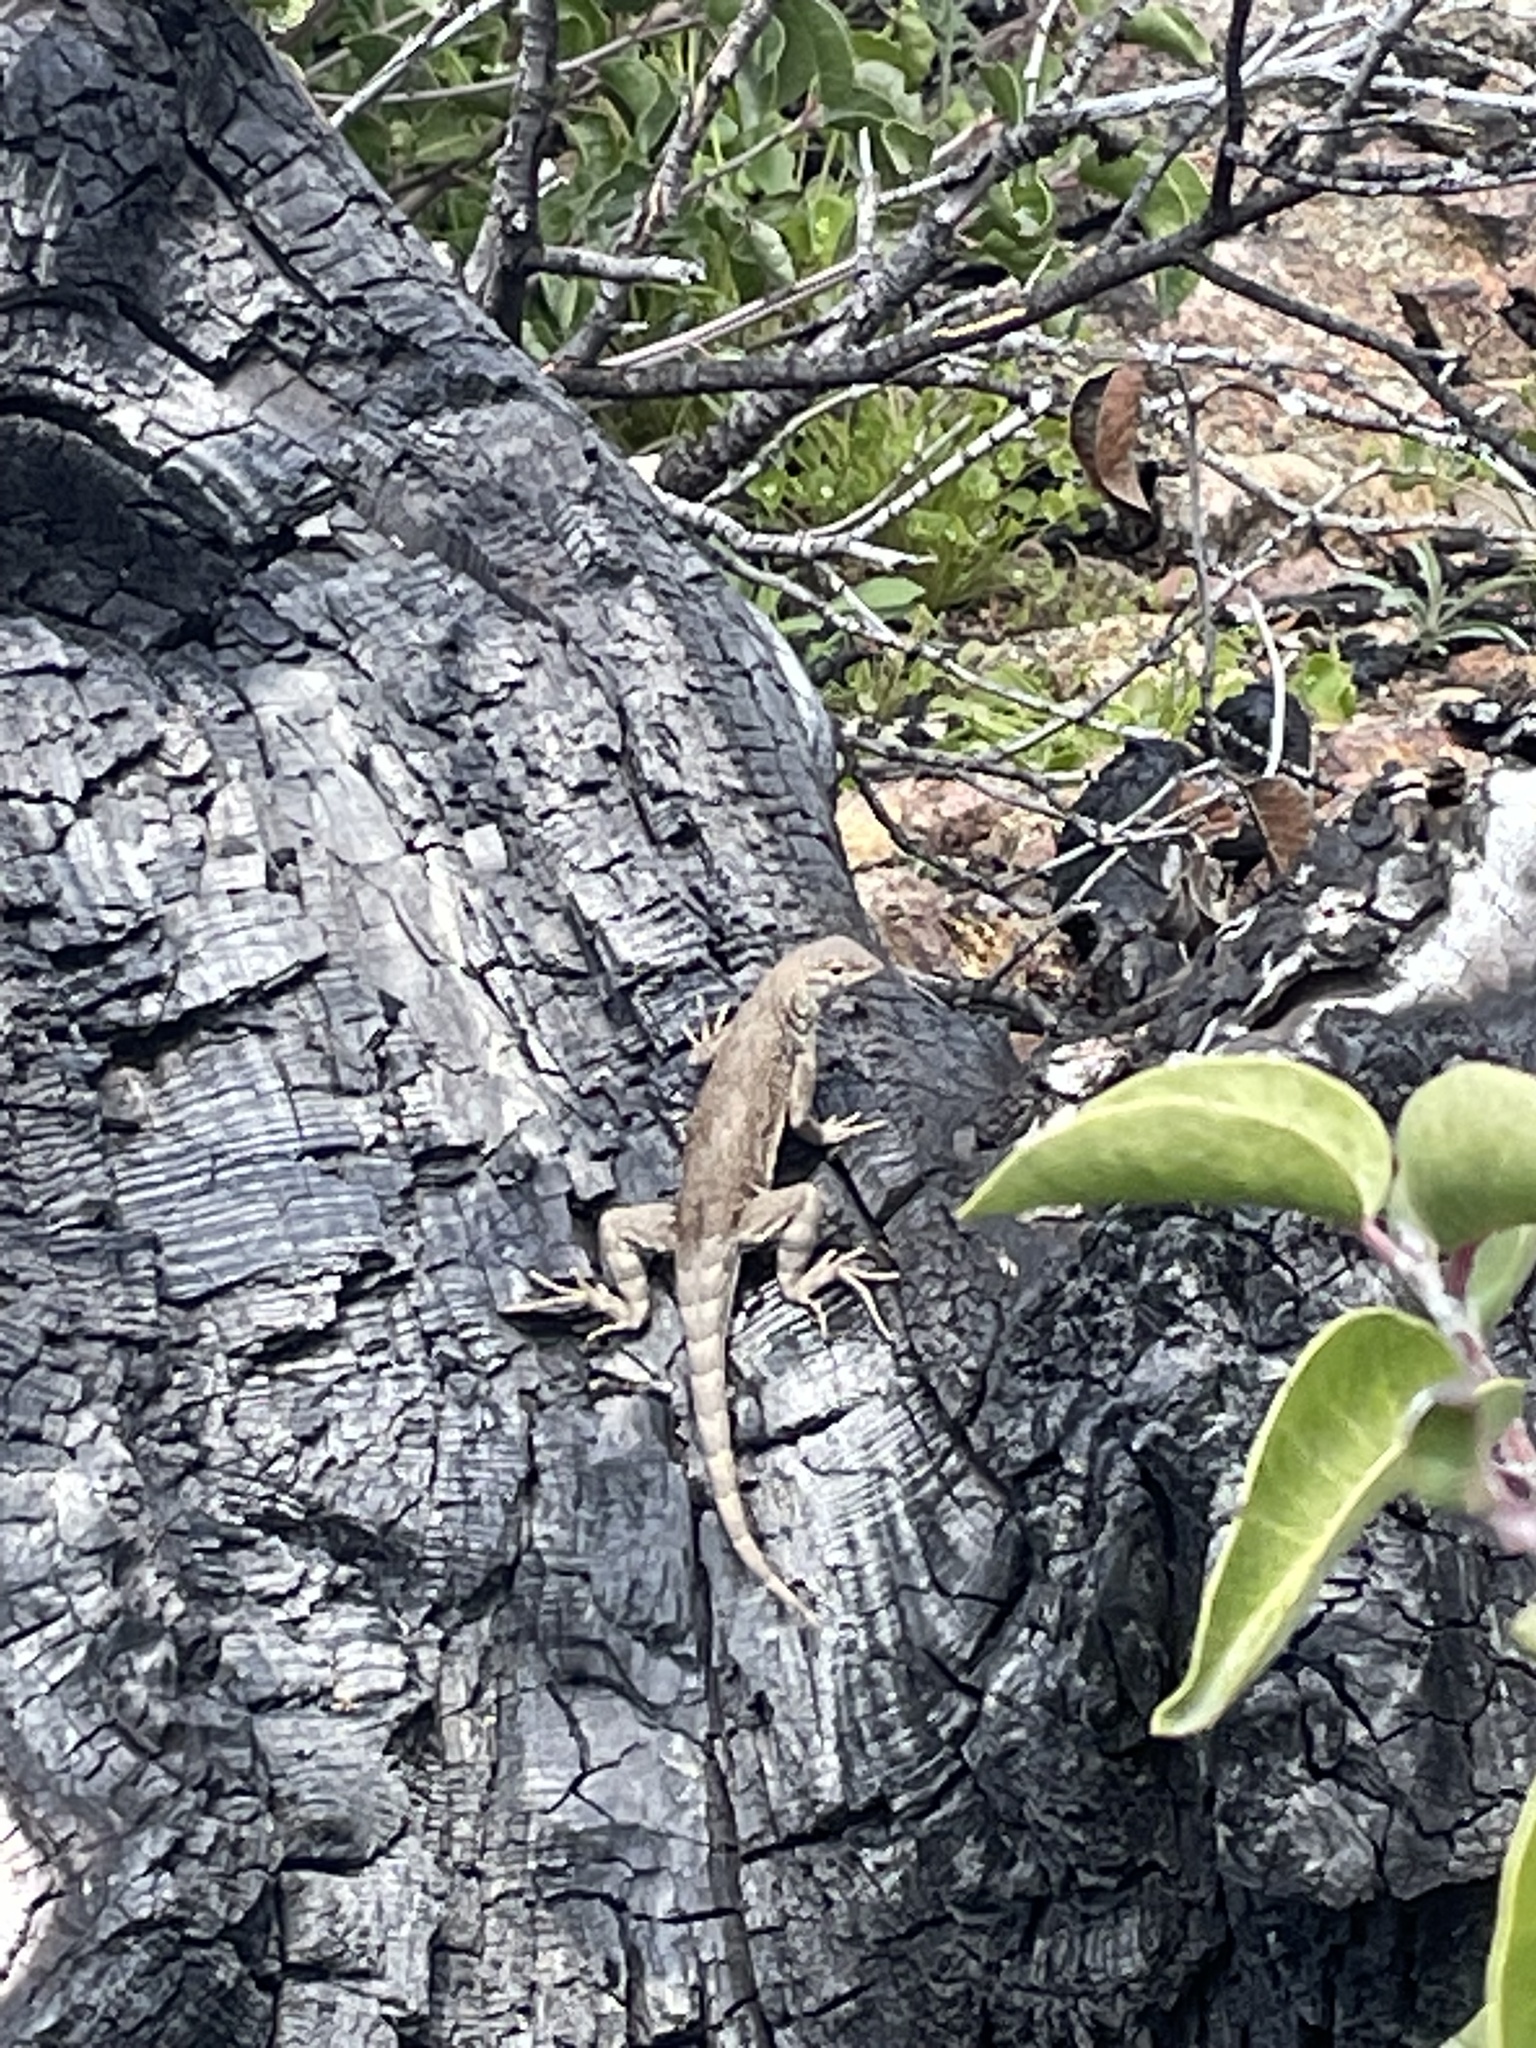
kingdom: Animalia
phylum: Chordata
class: Squamata
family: Phrynosomatidae
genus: Cophosaurus
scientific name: Cophosaurus texanus
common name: Greater earless lizard
